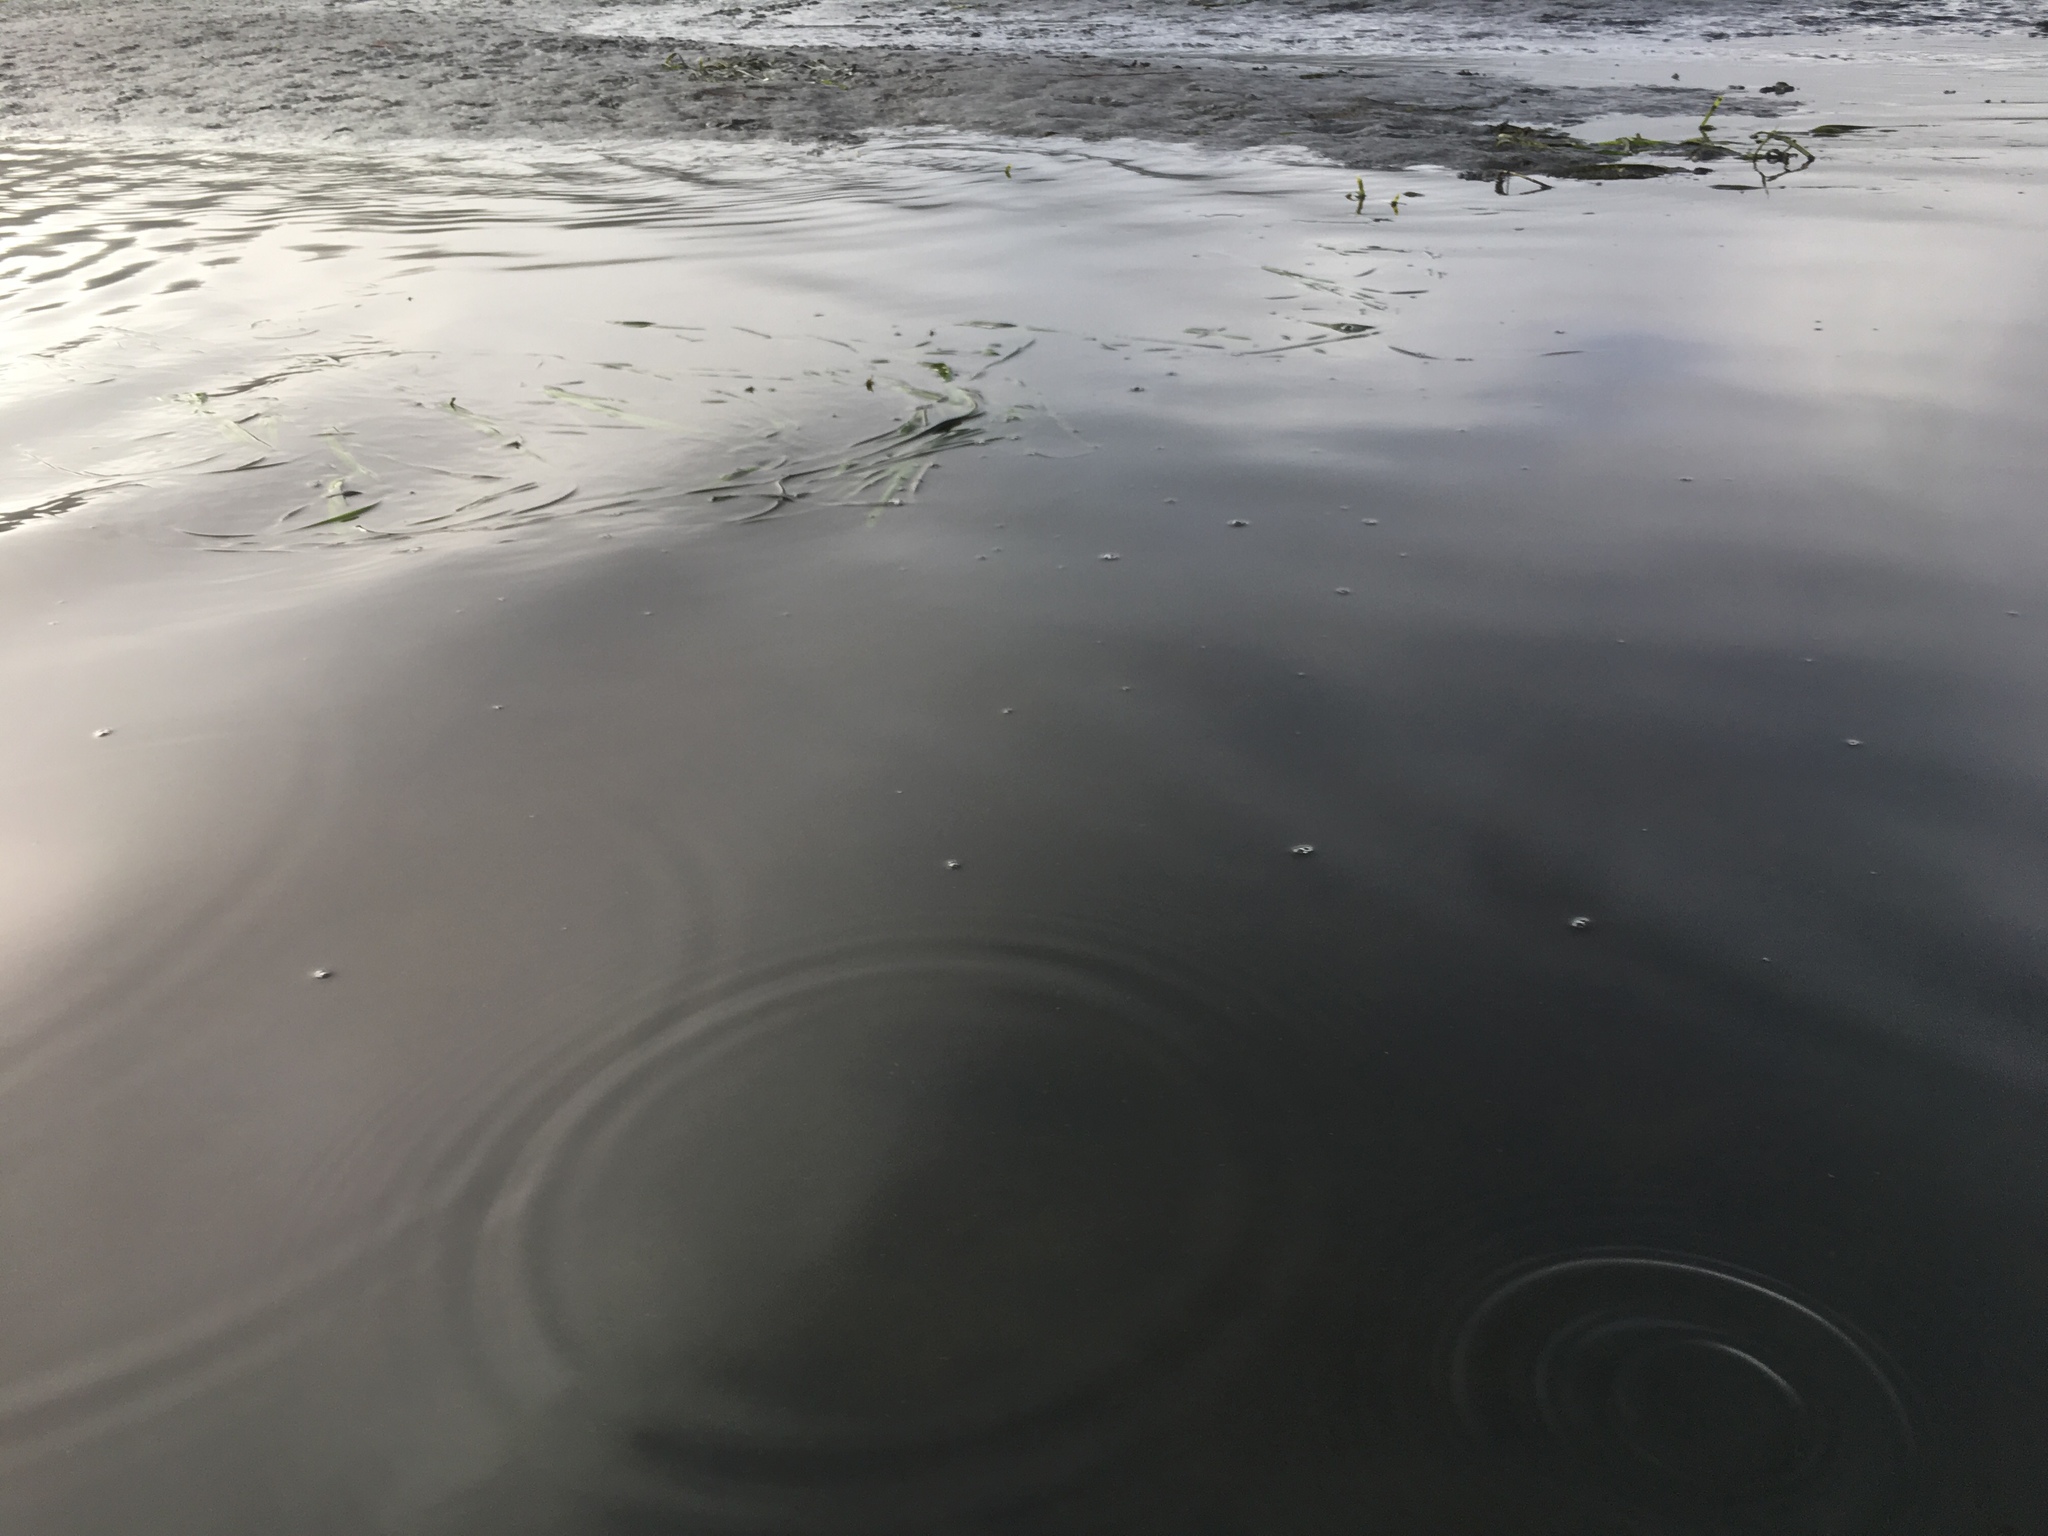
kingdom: Plantae
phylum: Tracheophyta
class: Liliopsida
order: Alismatales
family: Zosteraceae
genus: Zostera
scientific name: Zostera marina
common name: Eelgrass
